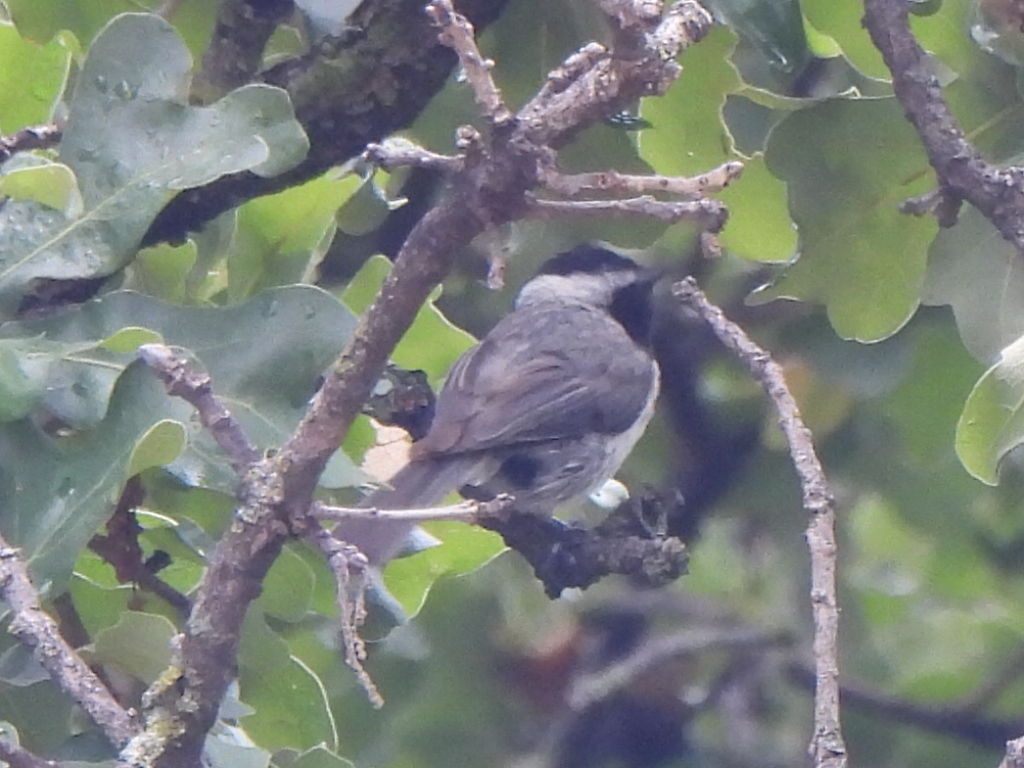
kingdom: Animalia
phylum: Chordata
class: Aves
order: Passeriformes
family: Paridae
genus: Poecile
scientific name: Poecile carolinensis
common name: Carolina chickadee
